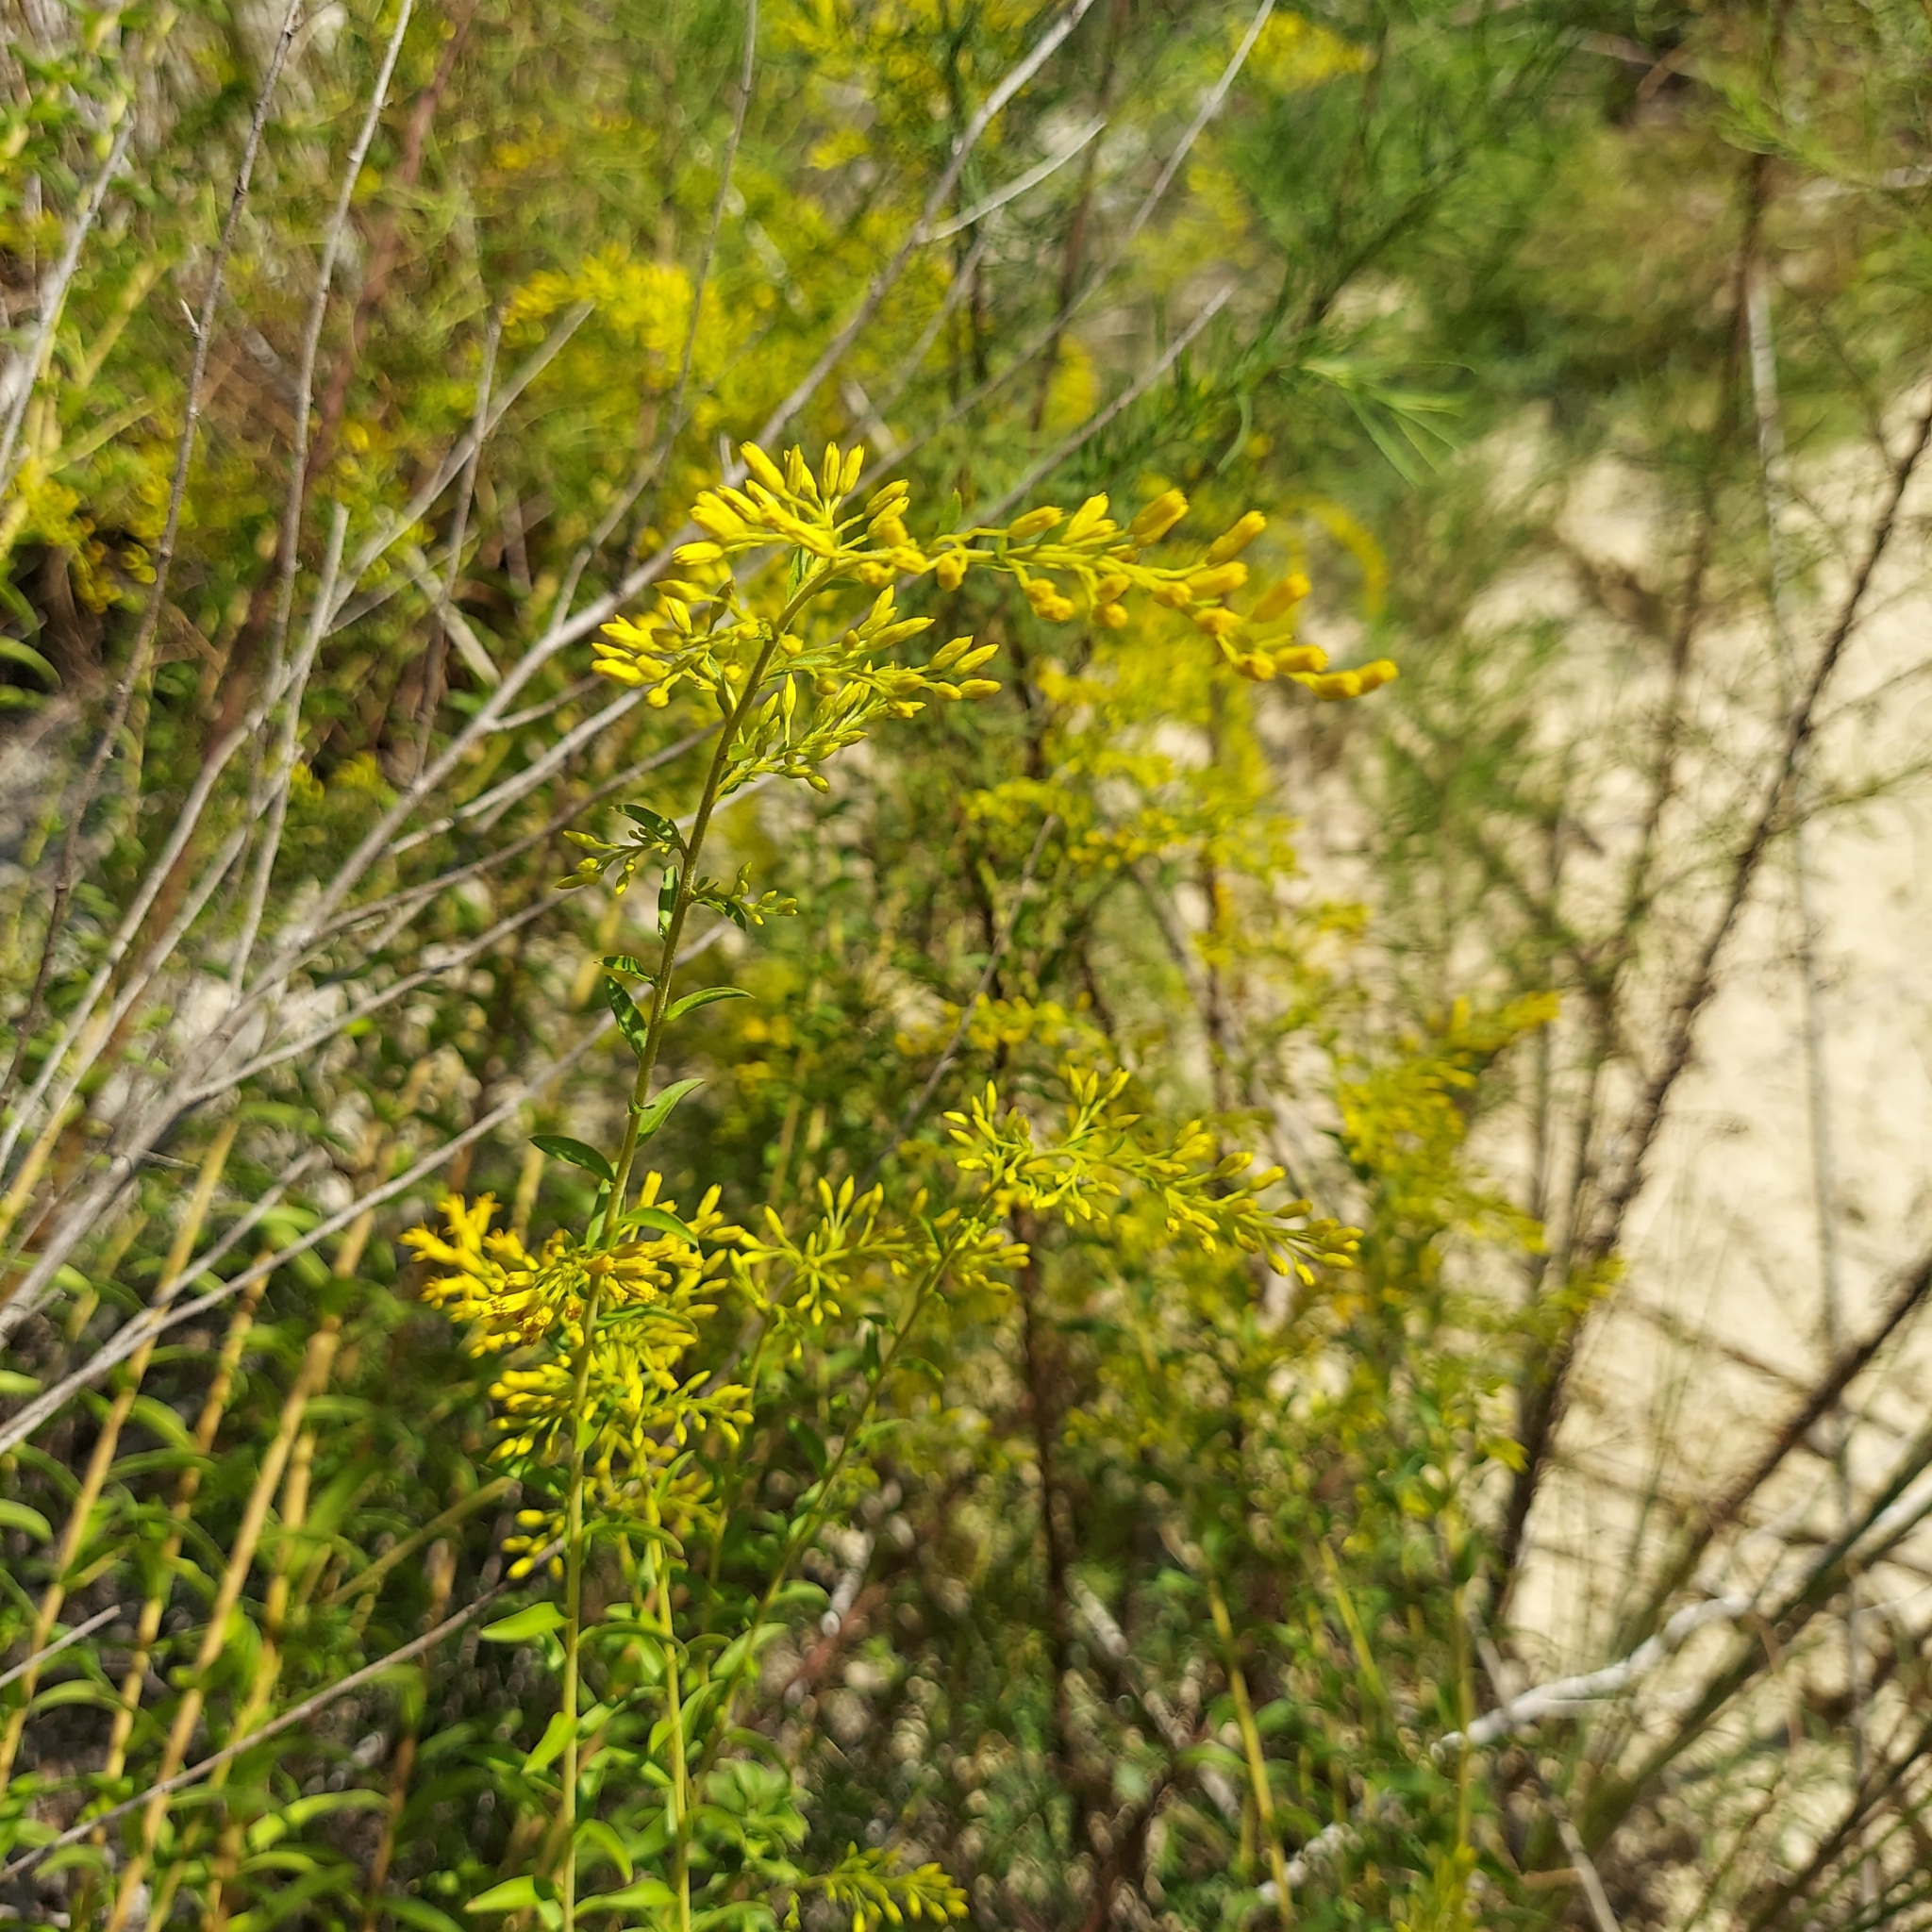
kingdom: Plantae
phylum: Tracheophyta
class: Magnoliopsida
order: Asterales
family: Asteraceae
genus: Solidago
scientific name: Solidago chapmanii
